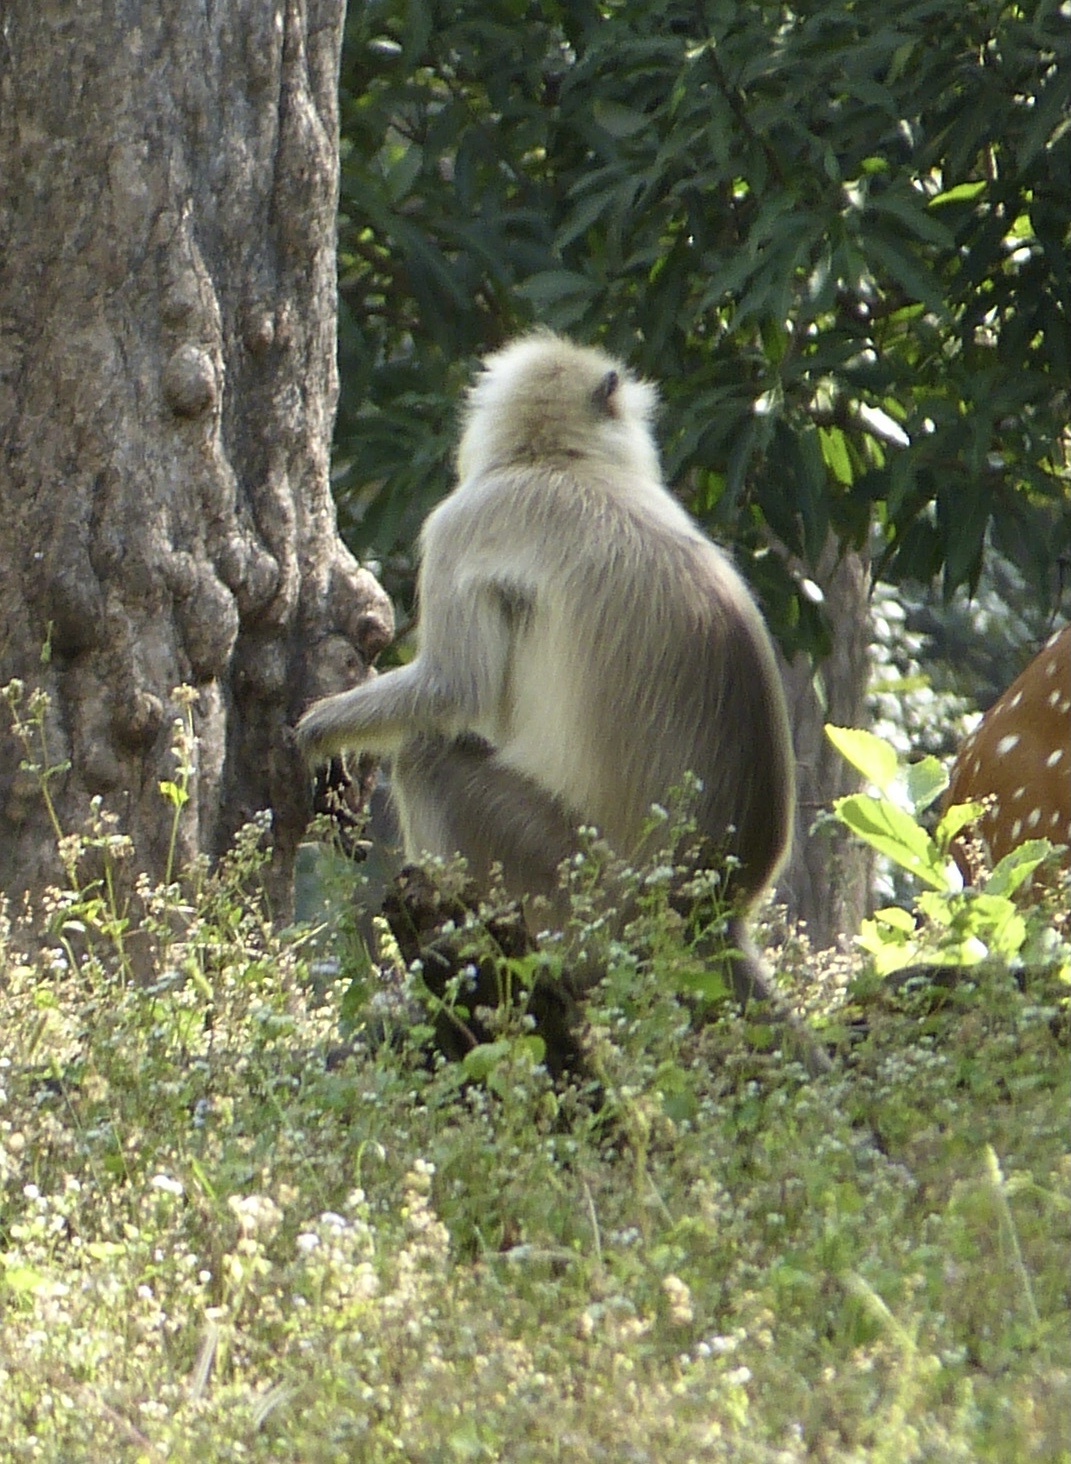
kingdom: Animalia
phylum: Chordata
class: Mammalia
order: Primates
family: Cercopithecidae
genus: Semnopithecus
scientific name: Semnopithecus entellus
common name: Northern plains gray langur
